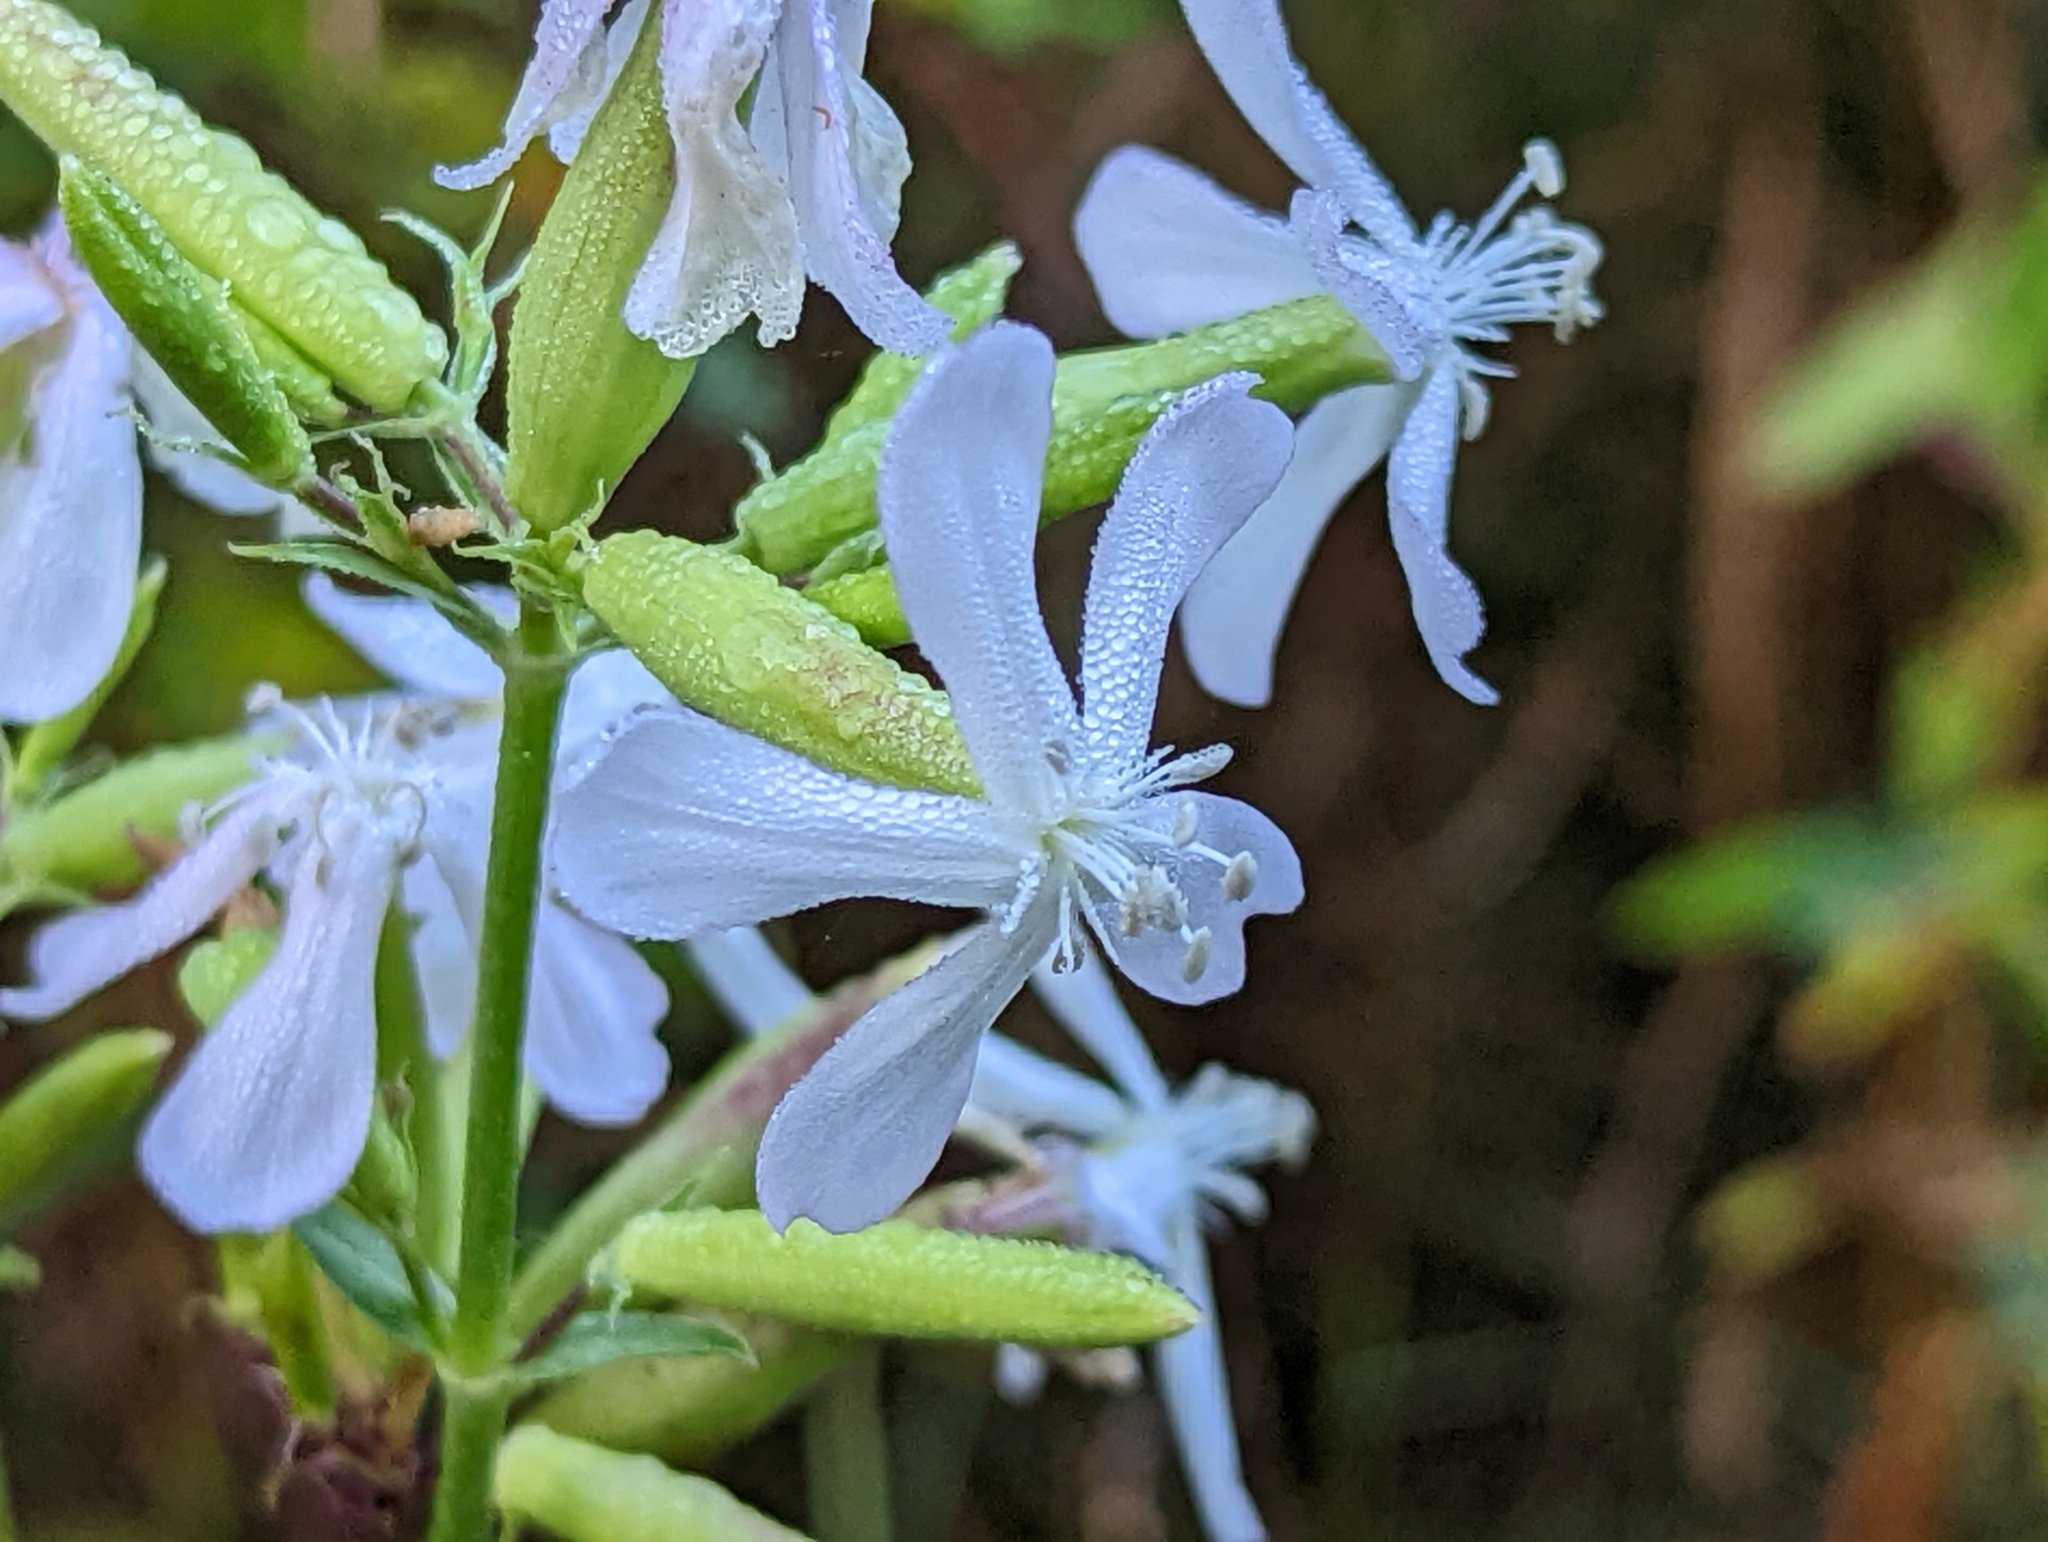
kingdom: Plantae
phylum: Tracheophyta
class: Magnoliopsida
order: Caryophyllales
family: Caryophyllaceae
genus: Saponaria
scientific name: Saponaria officinalis
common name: Soapwort
